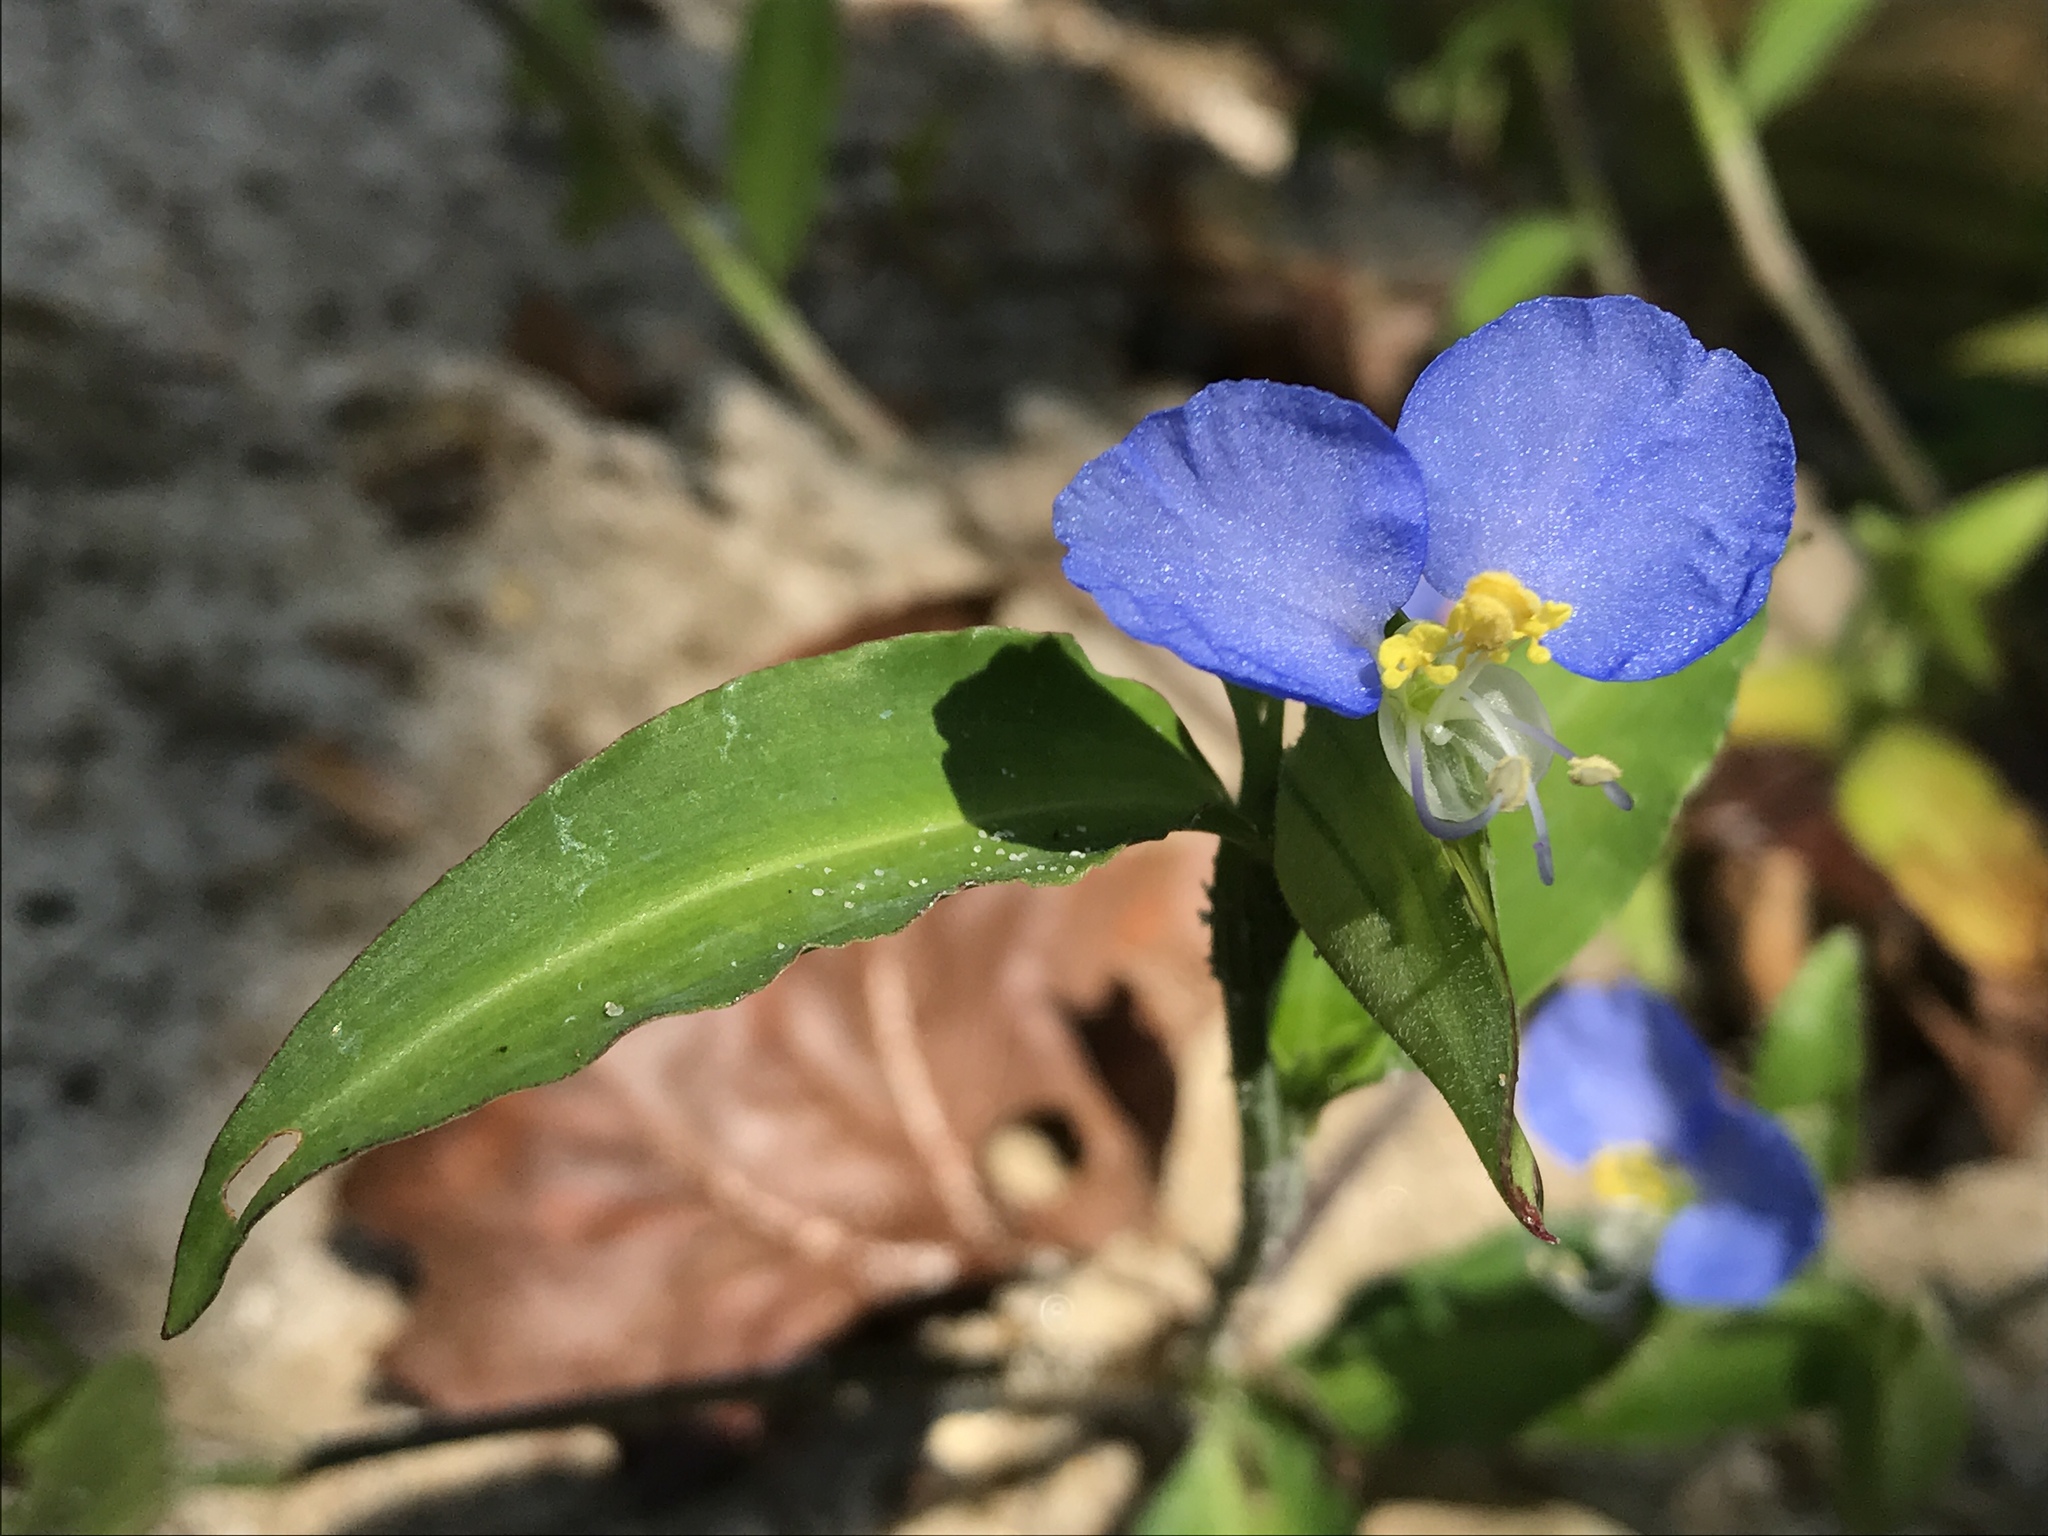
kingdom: Plantae
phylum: Tracheophyta
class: Liliopsida
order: Commelinales
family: Commelinaceae
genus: Commelina
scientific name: Commelina erecta
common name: Blousel blommetjie
